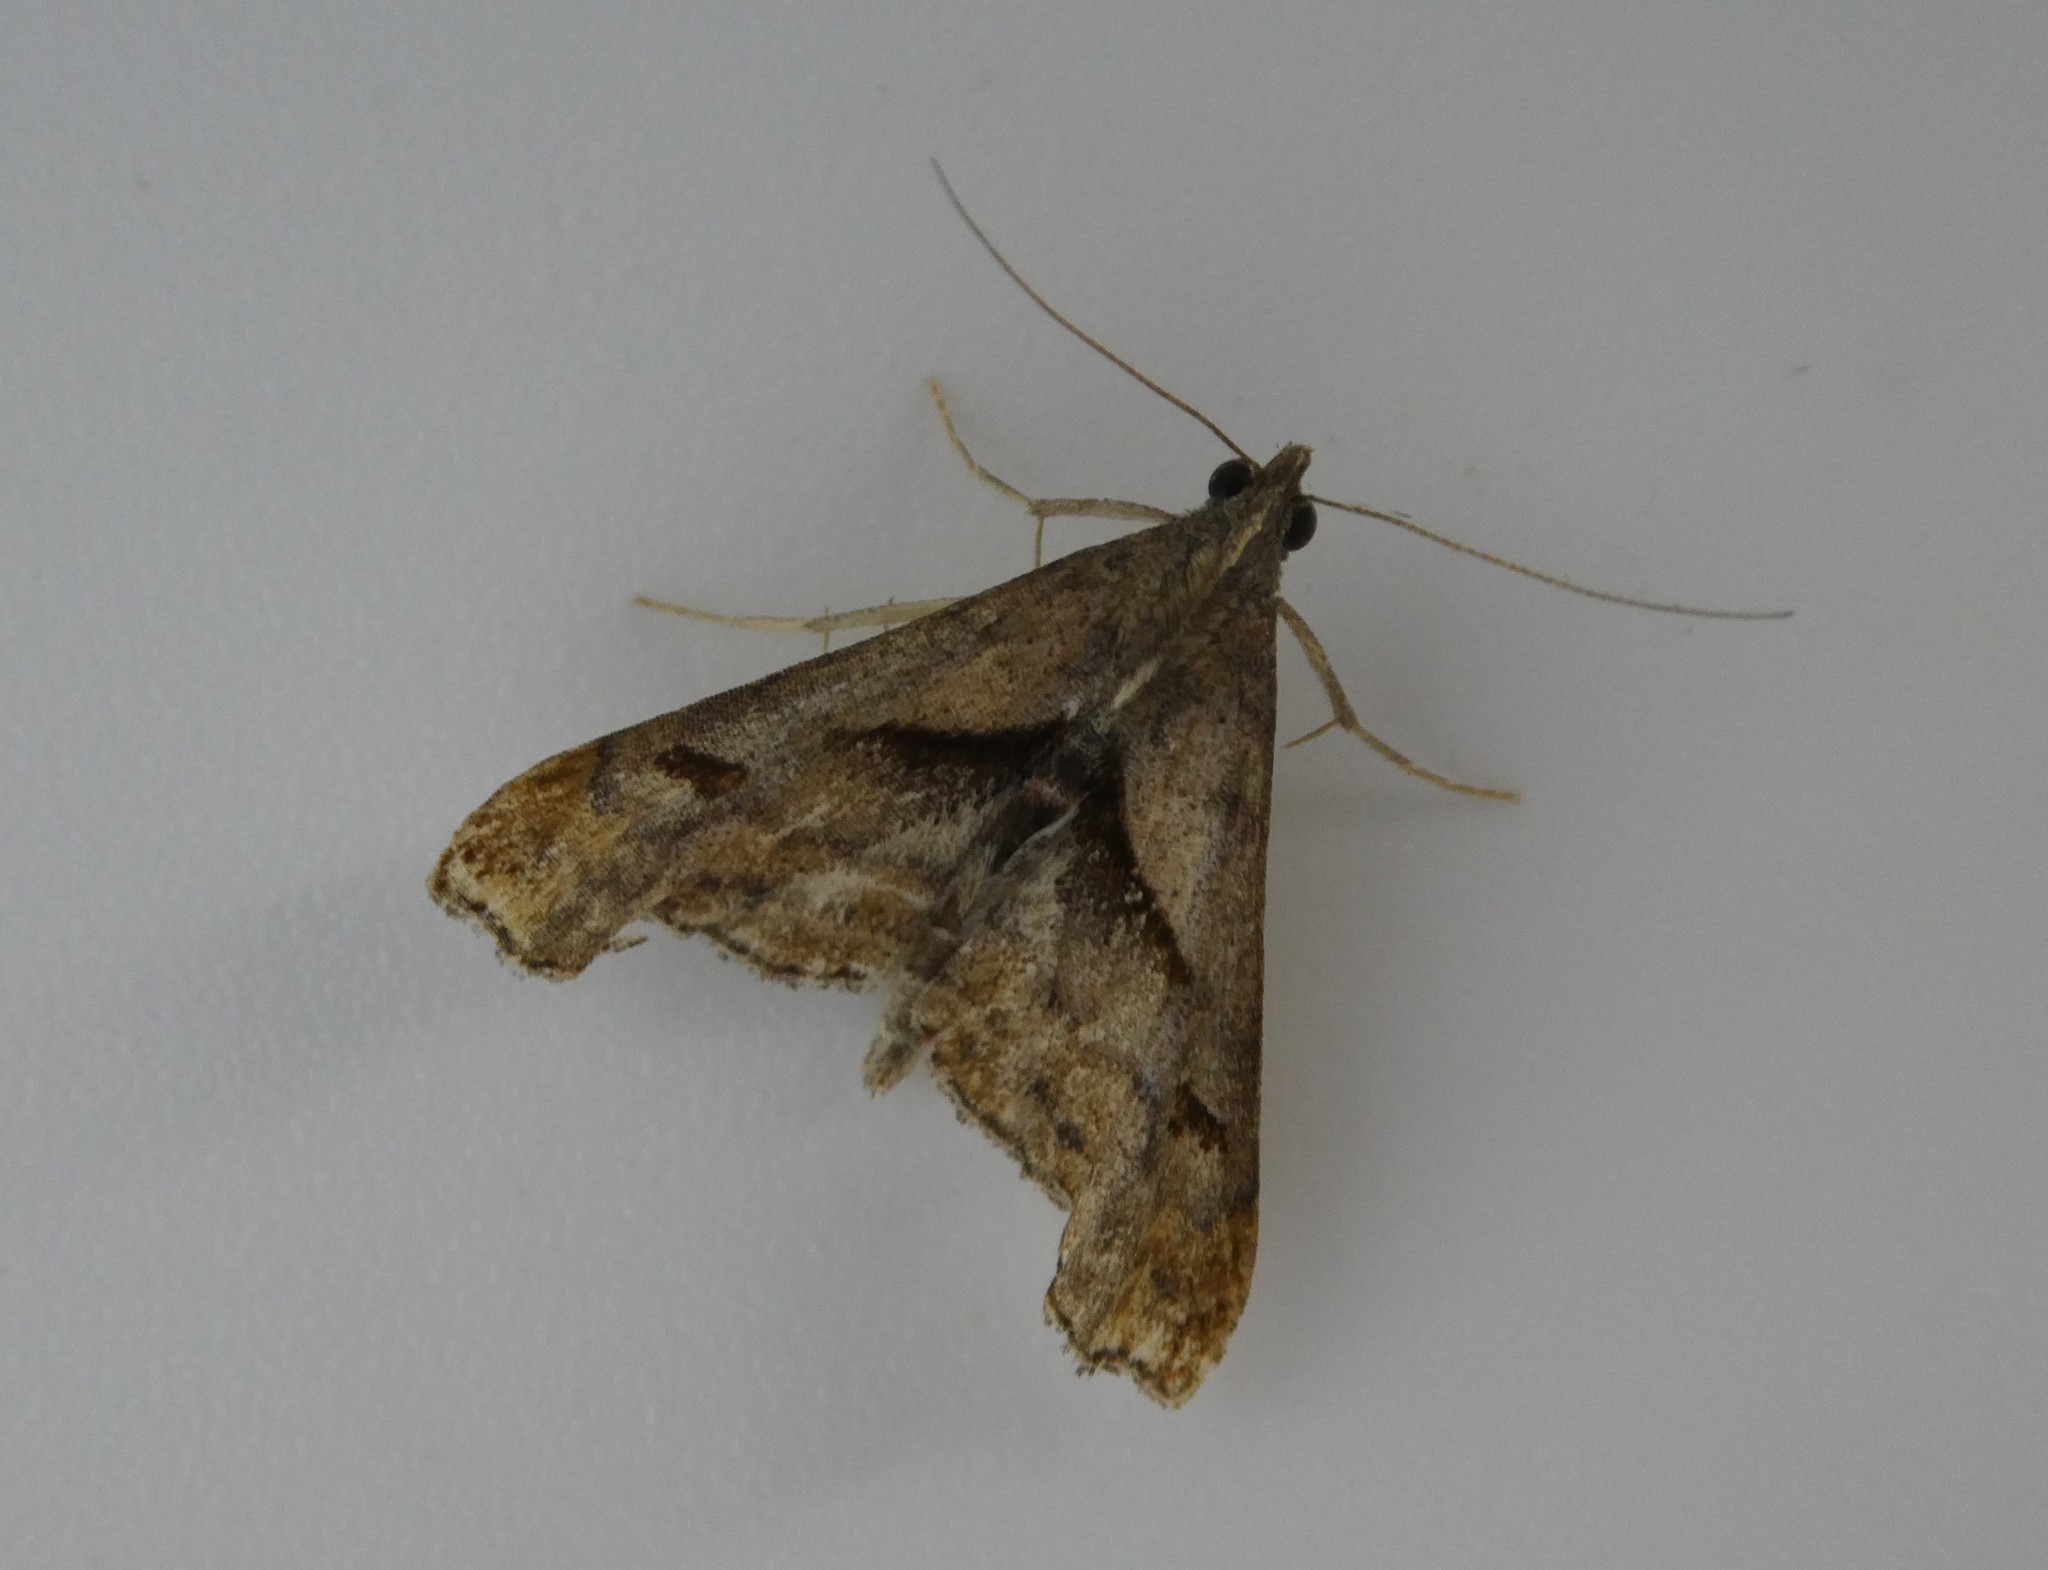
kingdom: Animalia
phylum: Arthropoda
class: Insecta
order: Lepidoptera
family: Erebidae
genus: Palthis
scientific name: Palthis angulalis
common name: Dark-spotted palthis moth
